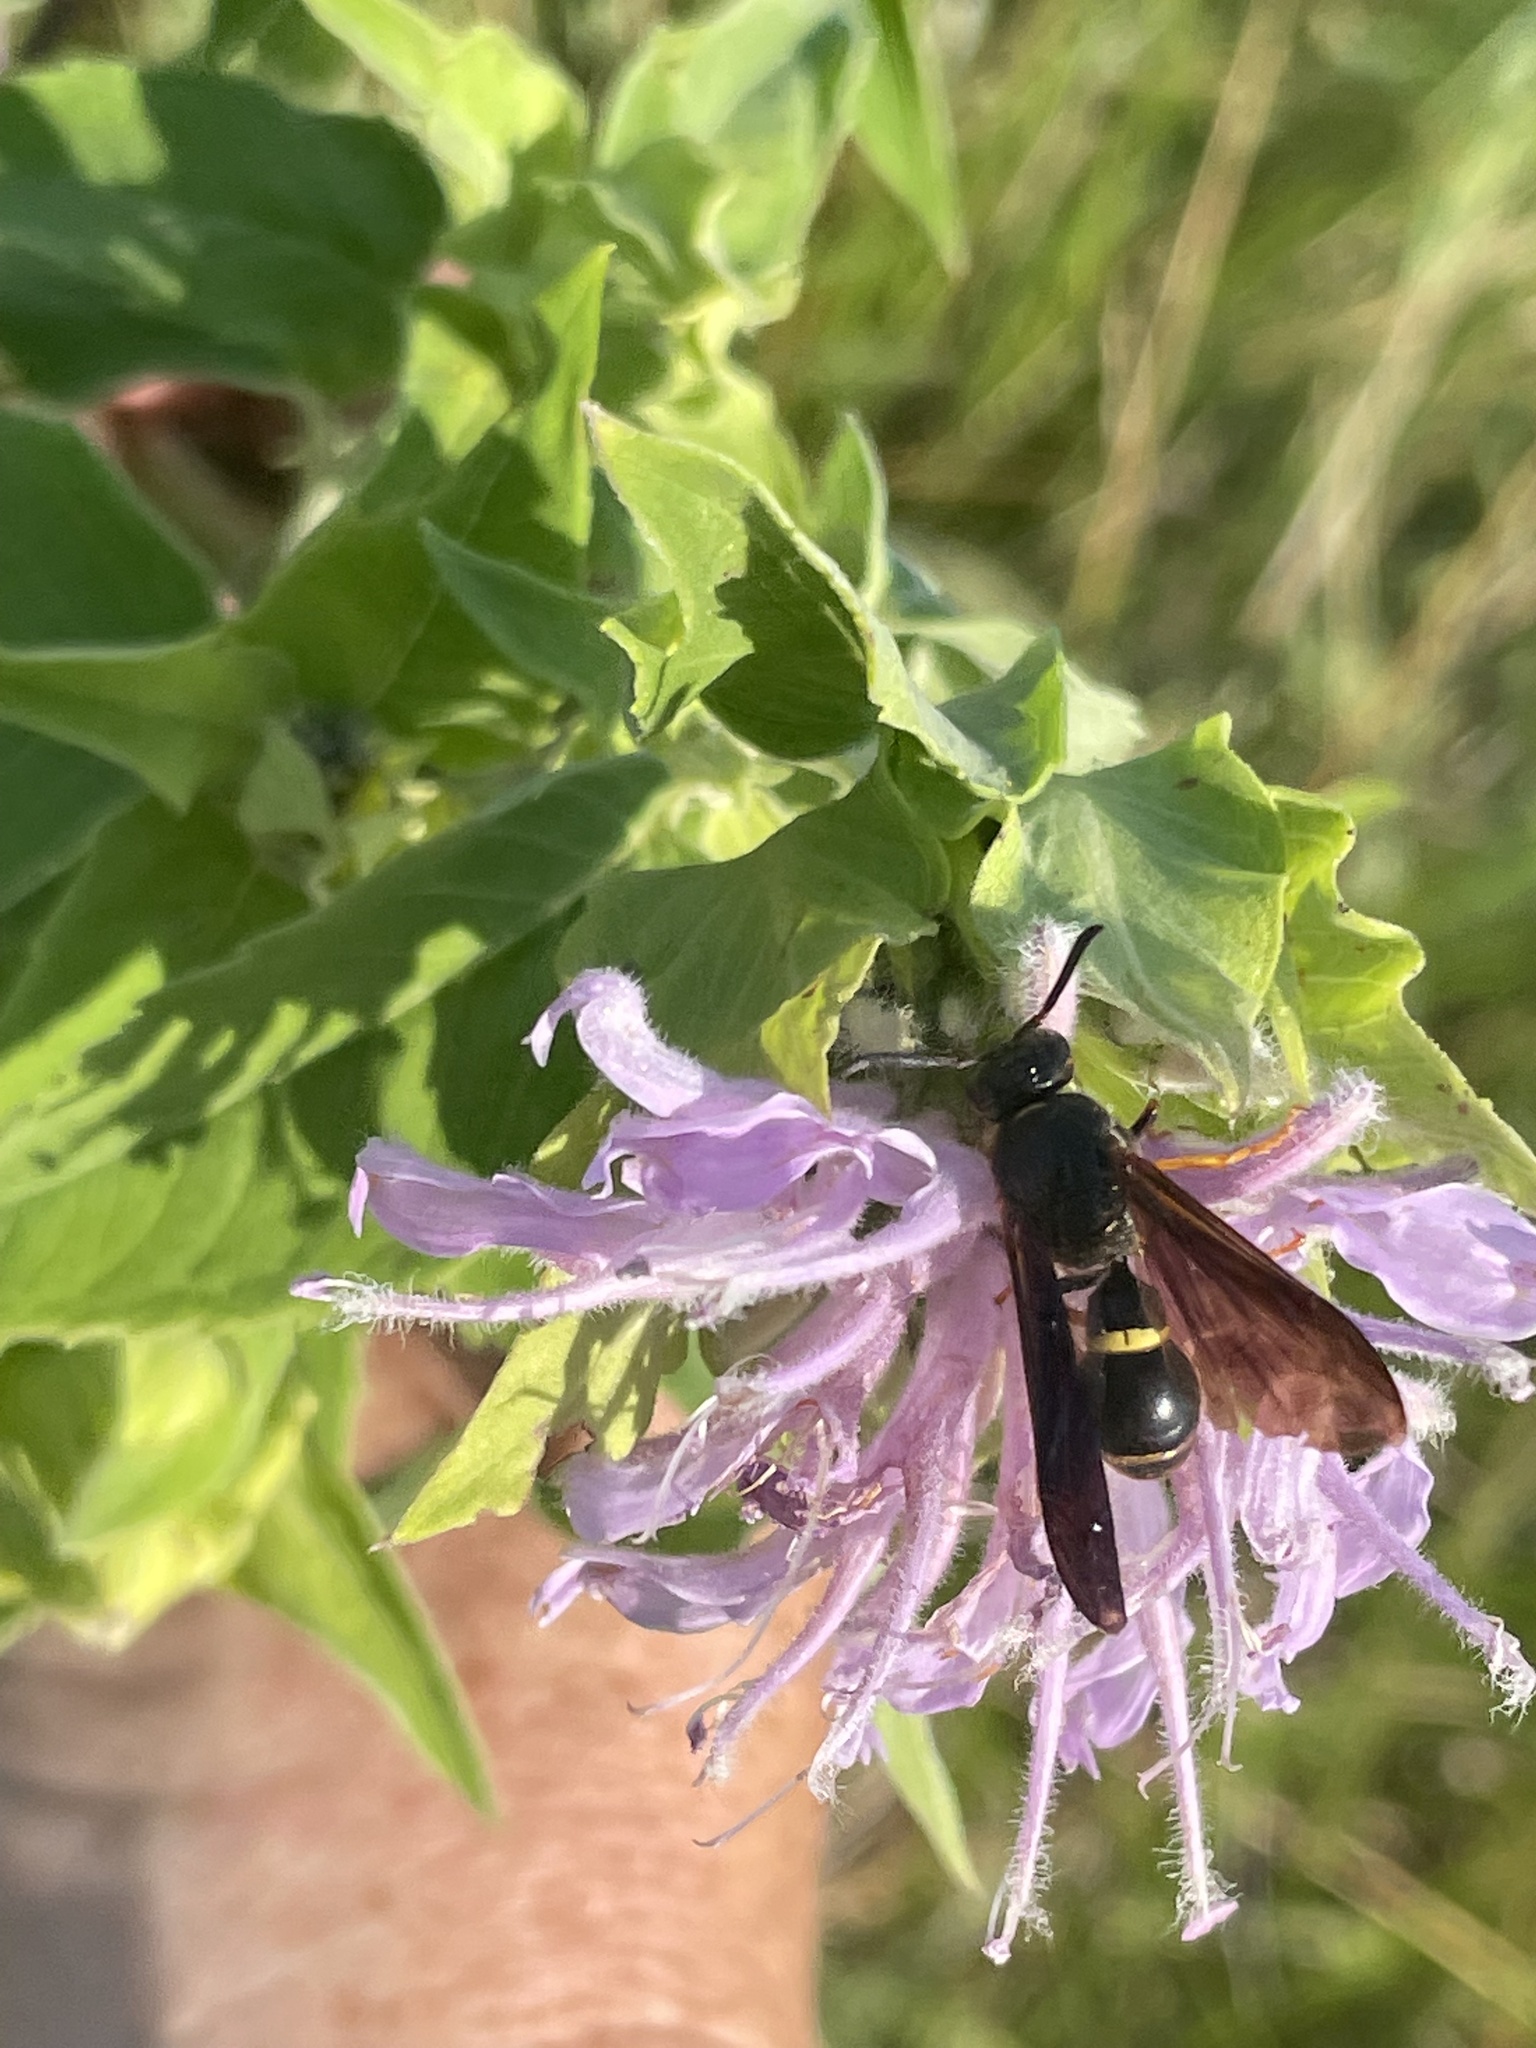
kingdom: Animalia
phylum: Arthropoda
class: Insecta
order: Hymenoptera
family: Eumenidae
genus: Parazumia
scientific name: Parazumia symmorpha
